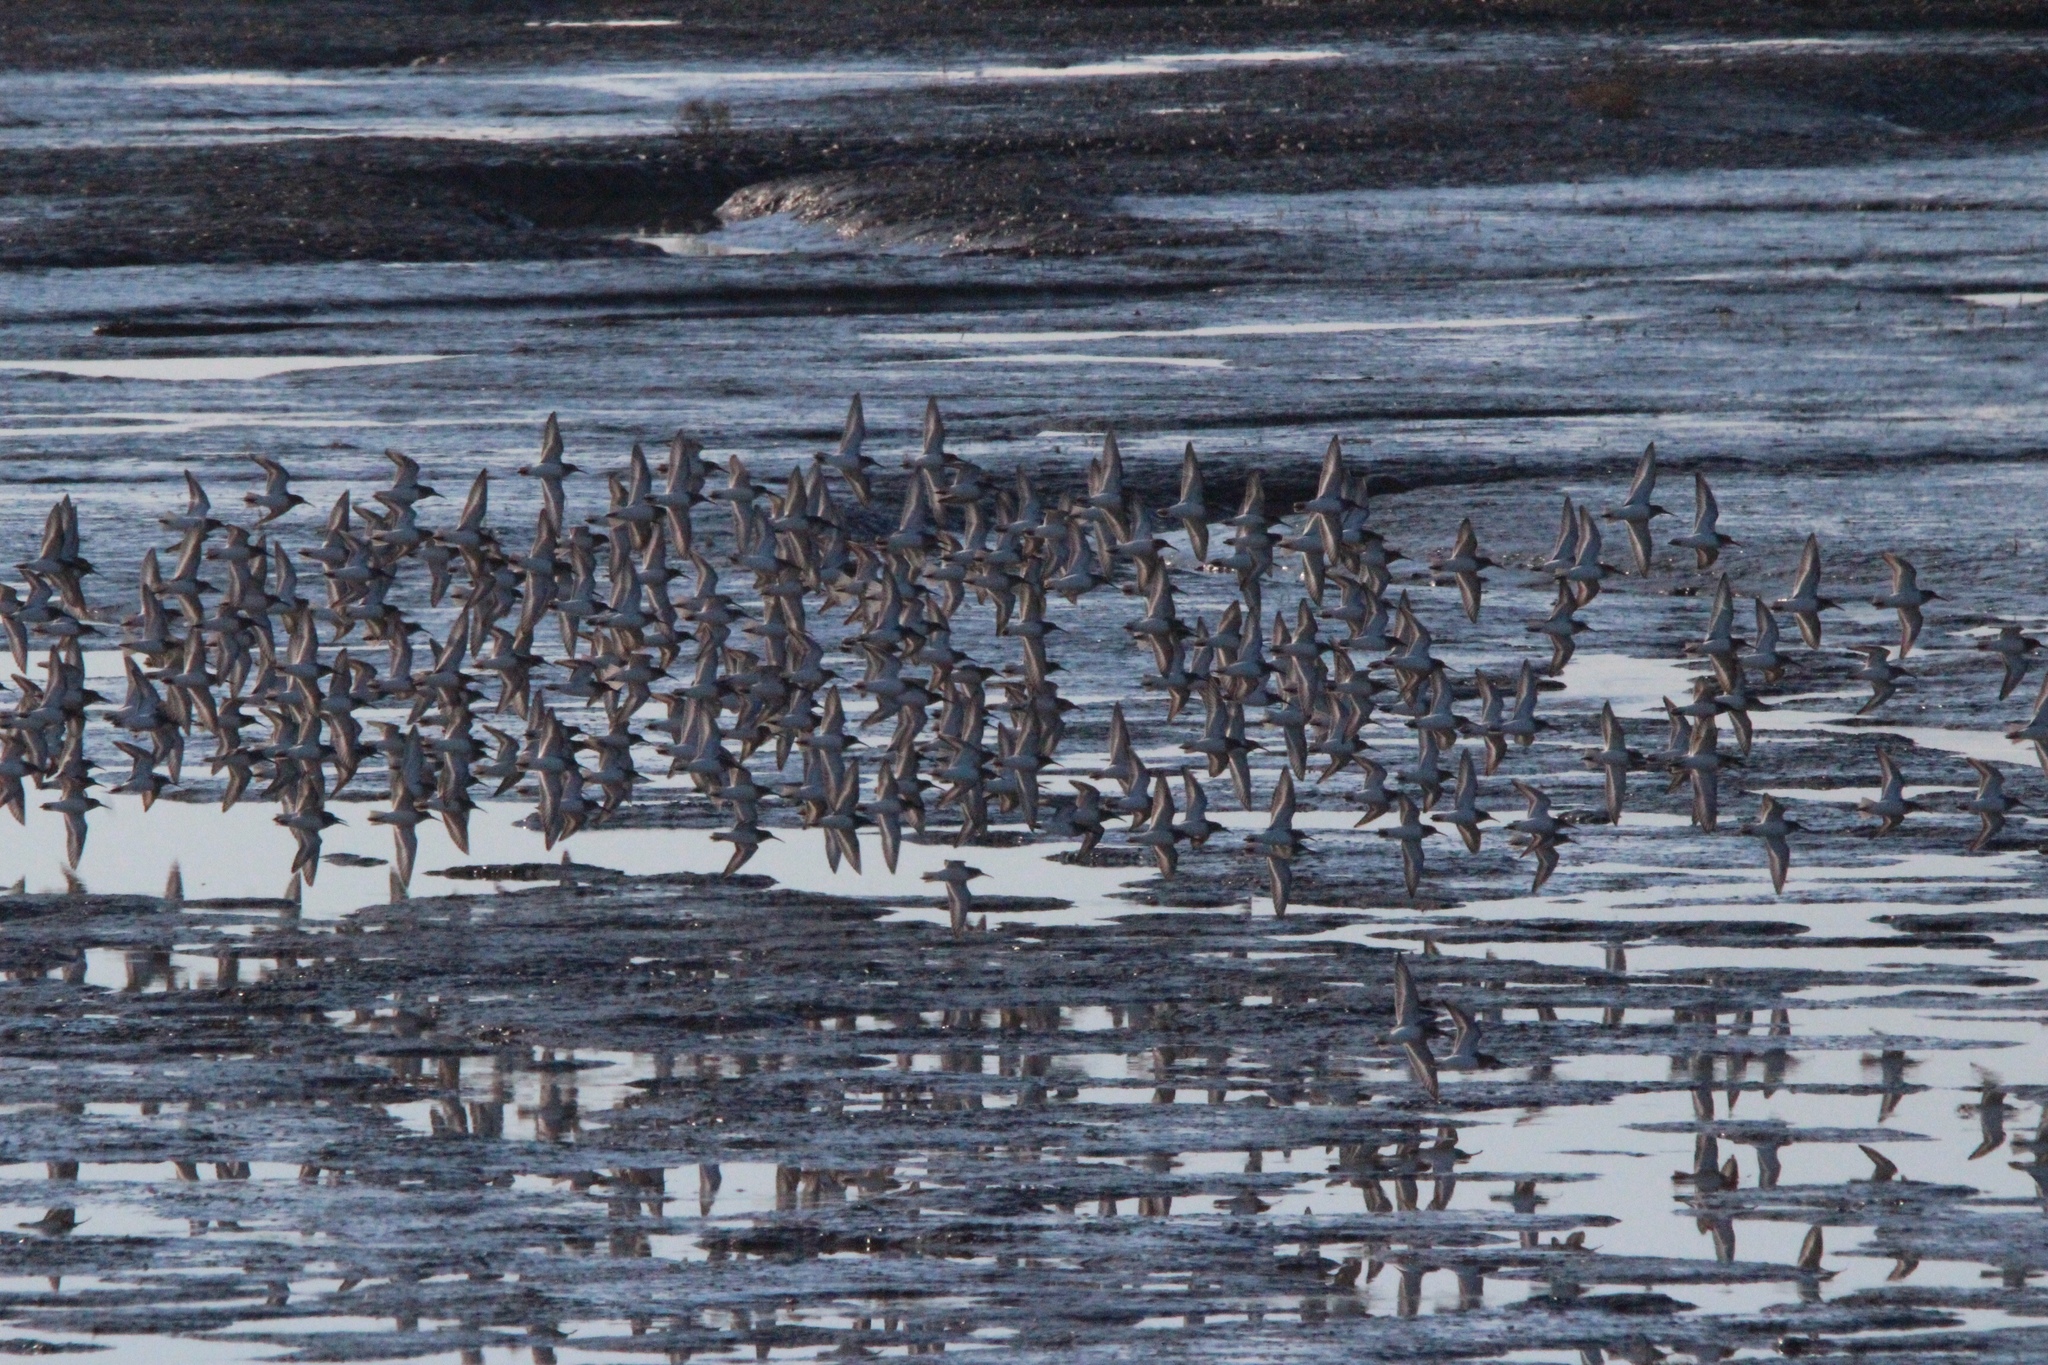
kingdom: Animalia
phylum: Chordata
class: Aves
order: Charadriiformes
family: Scolopacidae
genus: Calidris
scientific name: Calidris alpina
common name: Dunlin
